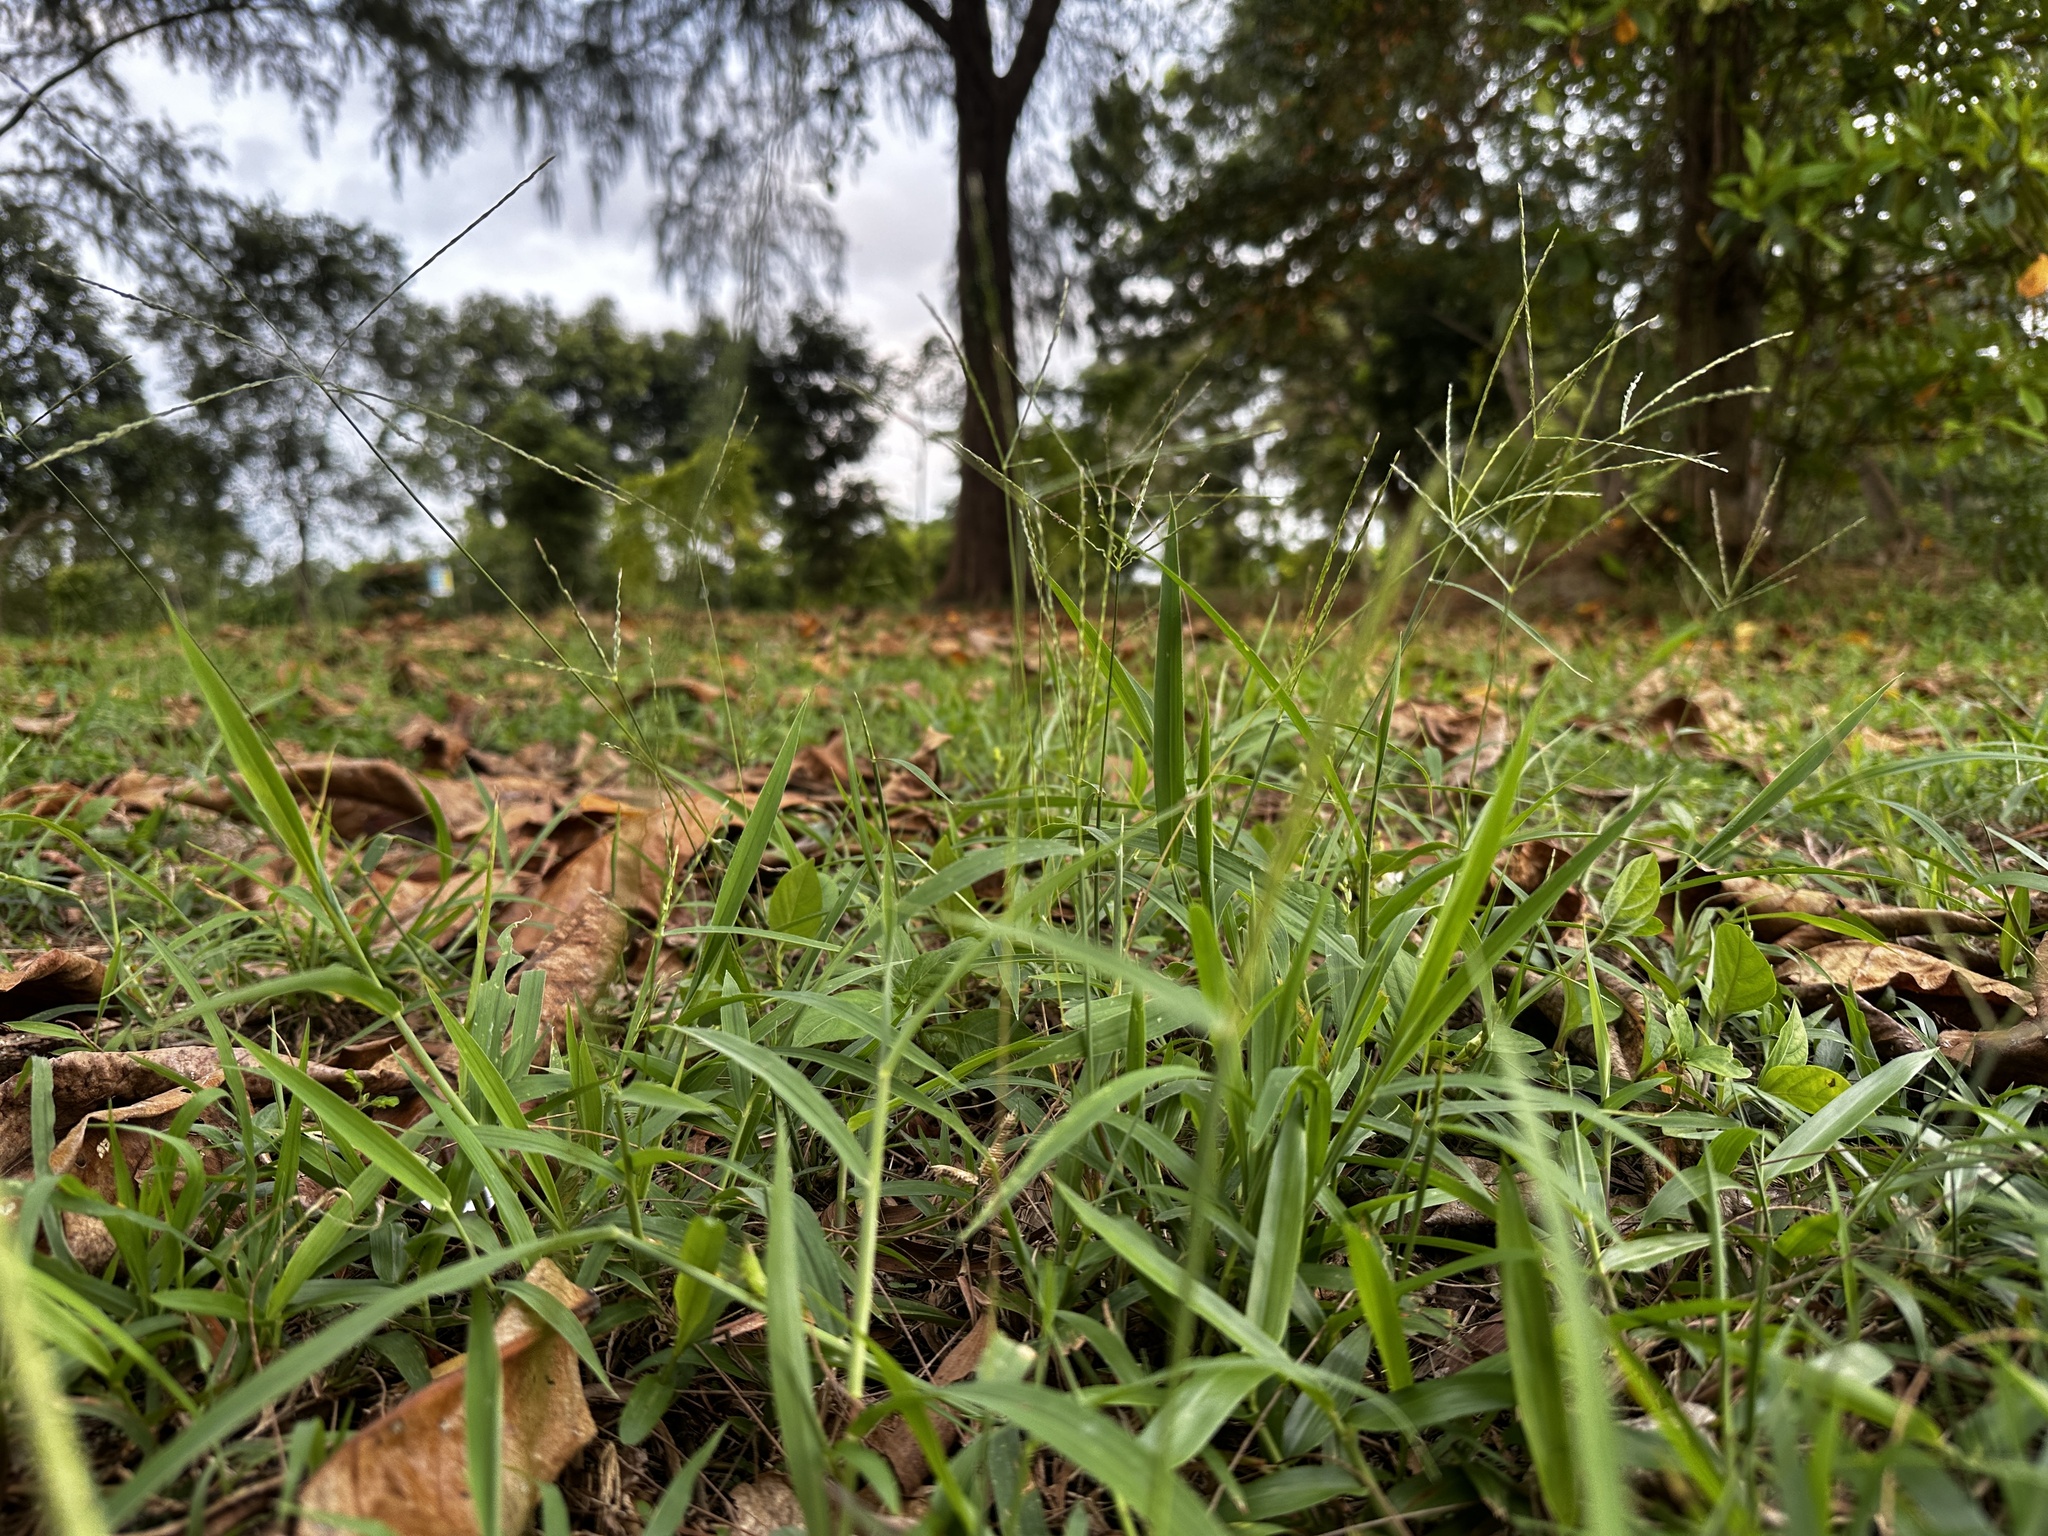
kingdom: Plantae
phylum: Tracheophyta
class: Liliopsida
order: Poales
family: Poaceae
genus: Digitaria
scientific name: Digitaria setigera
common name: East indian crabgrass
